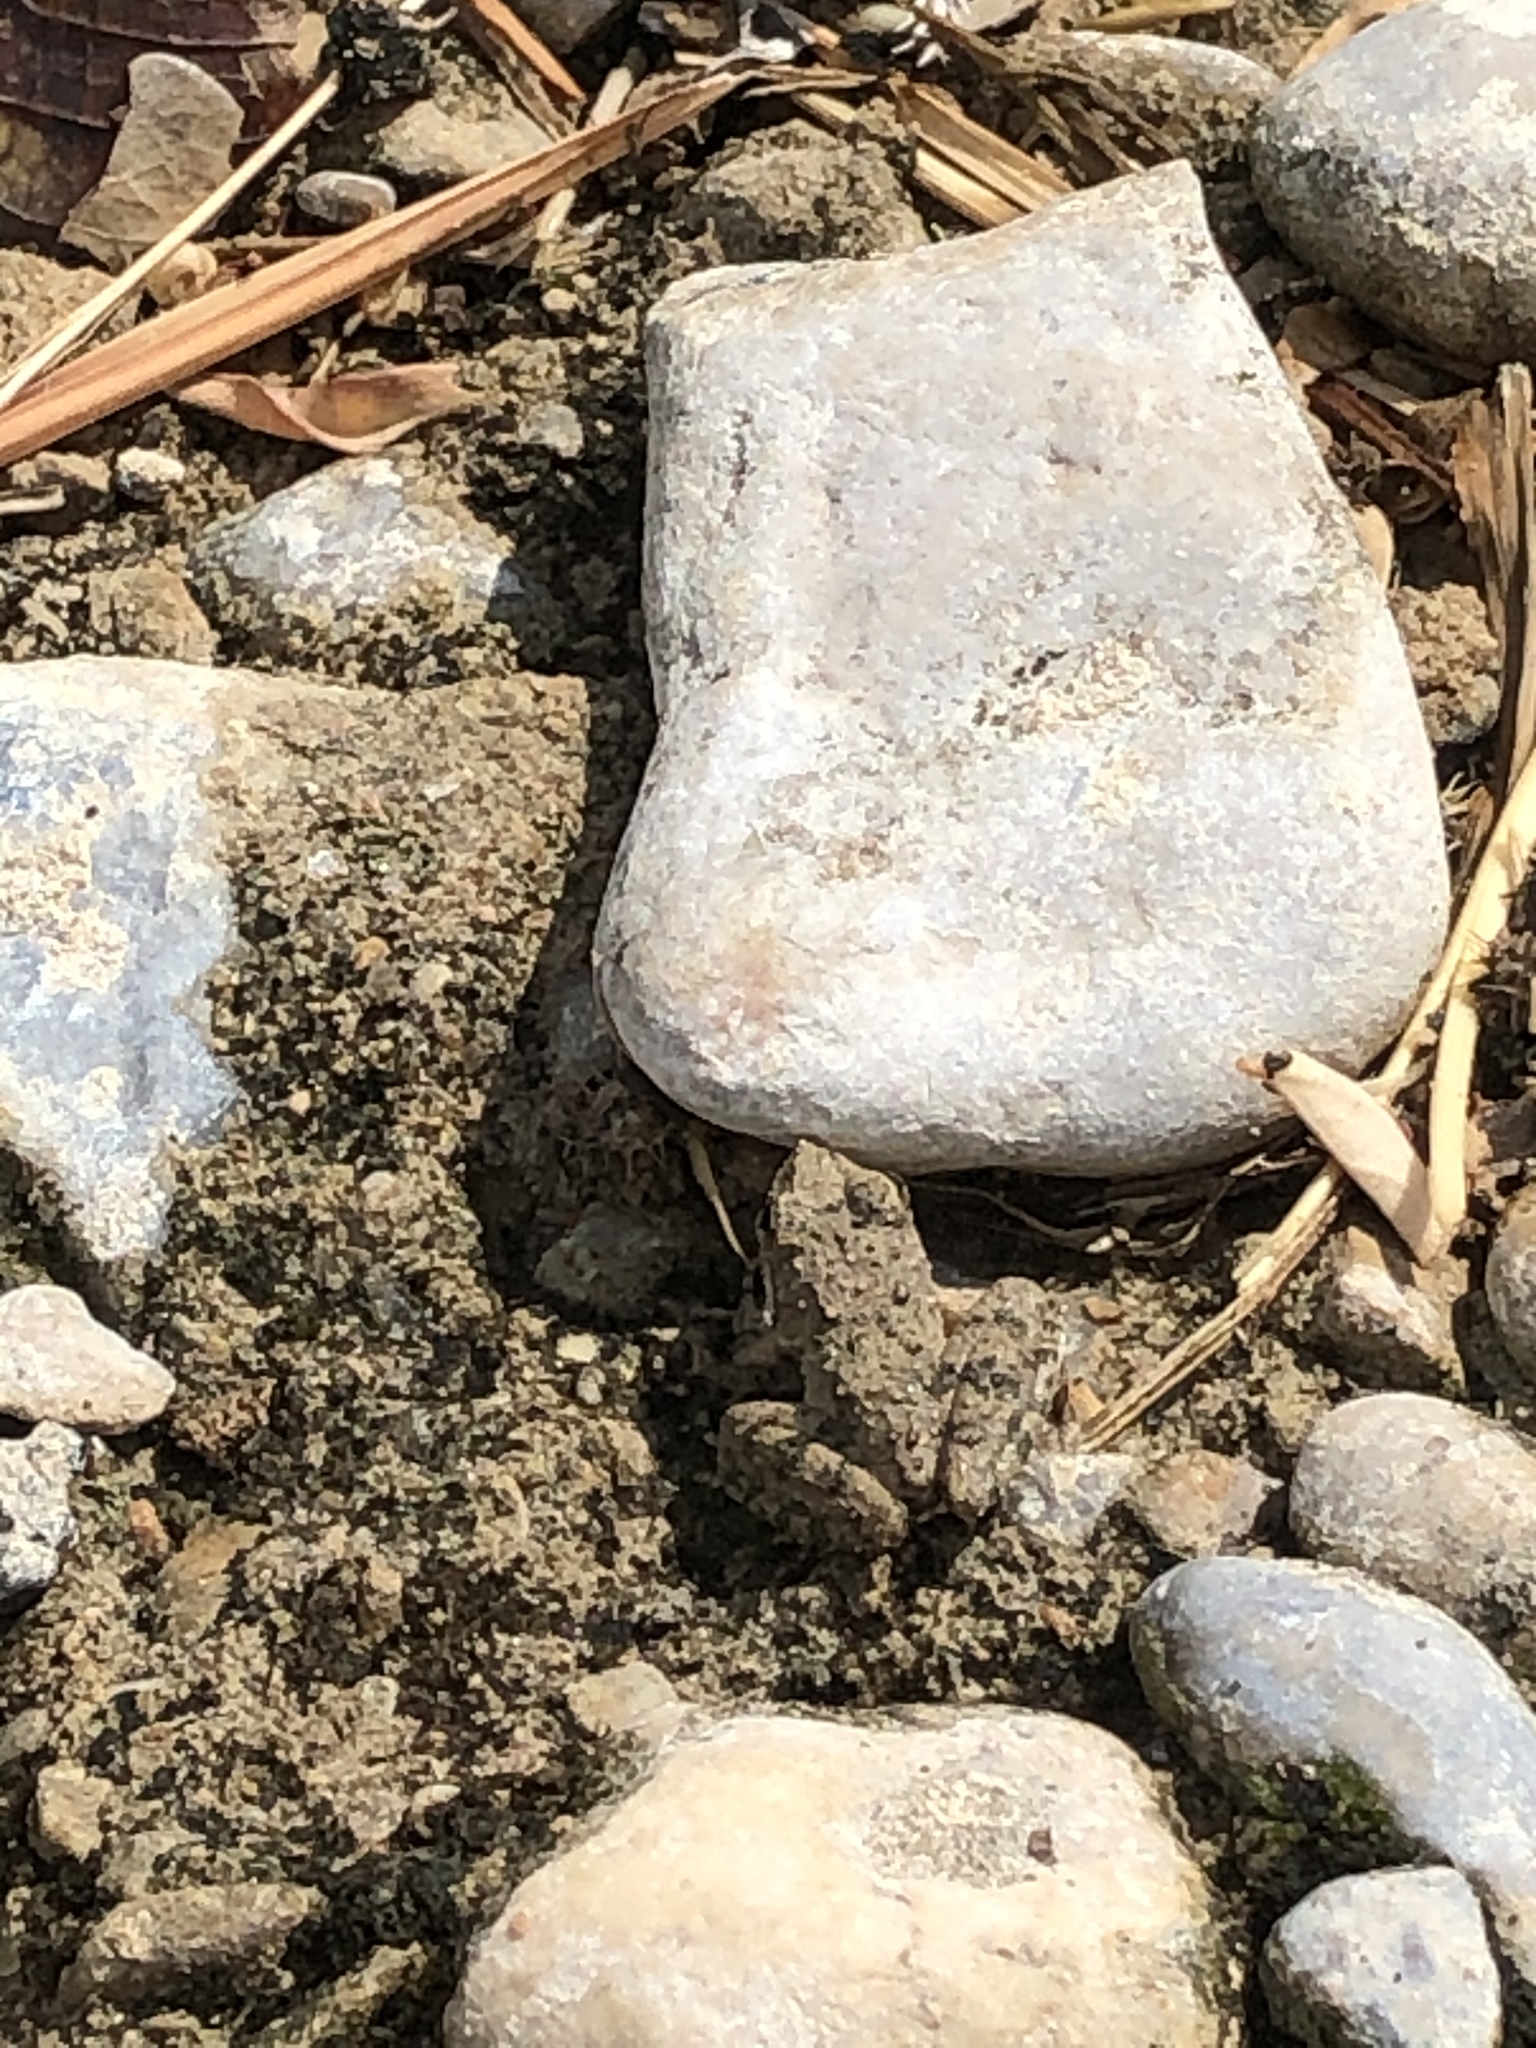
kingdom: Animalia
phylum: Chordata
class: Amphibia
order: Anura
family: Hylidae
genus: Acris
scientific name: Acris blanchardi
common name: Blanchard's cricket frog
